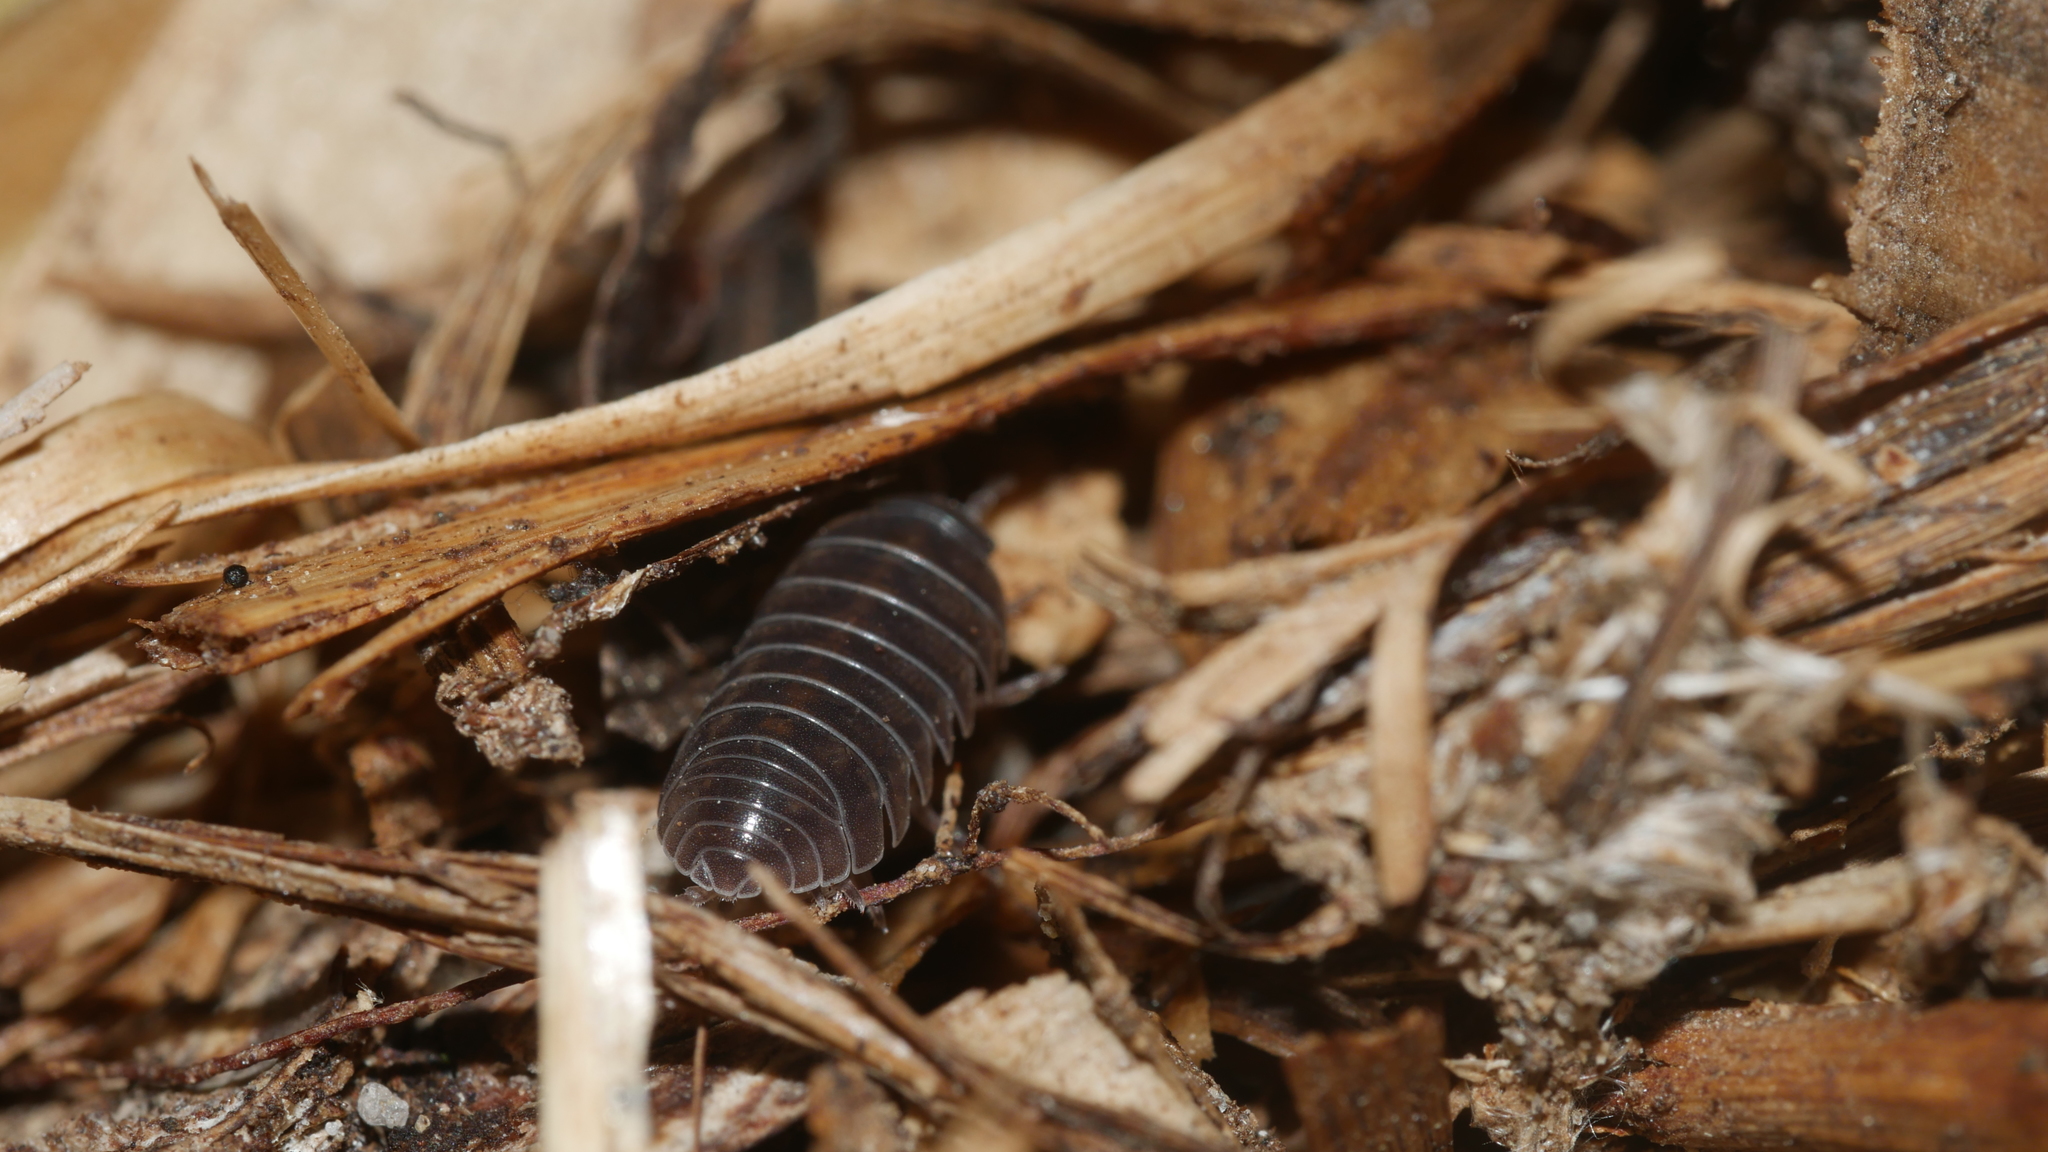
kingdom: Animalia
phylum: Arthropoda
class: Malacostraca
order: Isopoda
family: Armadillidiidae
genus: Armadillidium
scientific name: Armadillidium vulgare
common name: Common pill woodlouse
